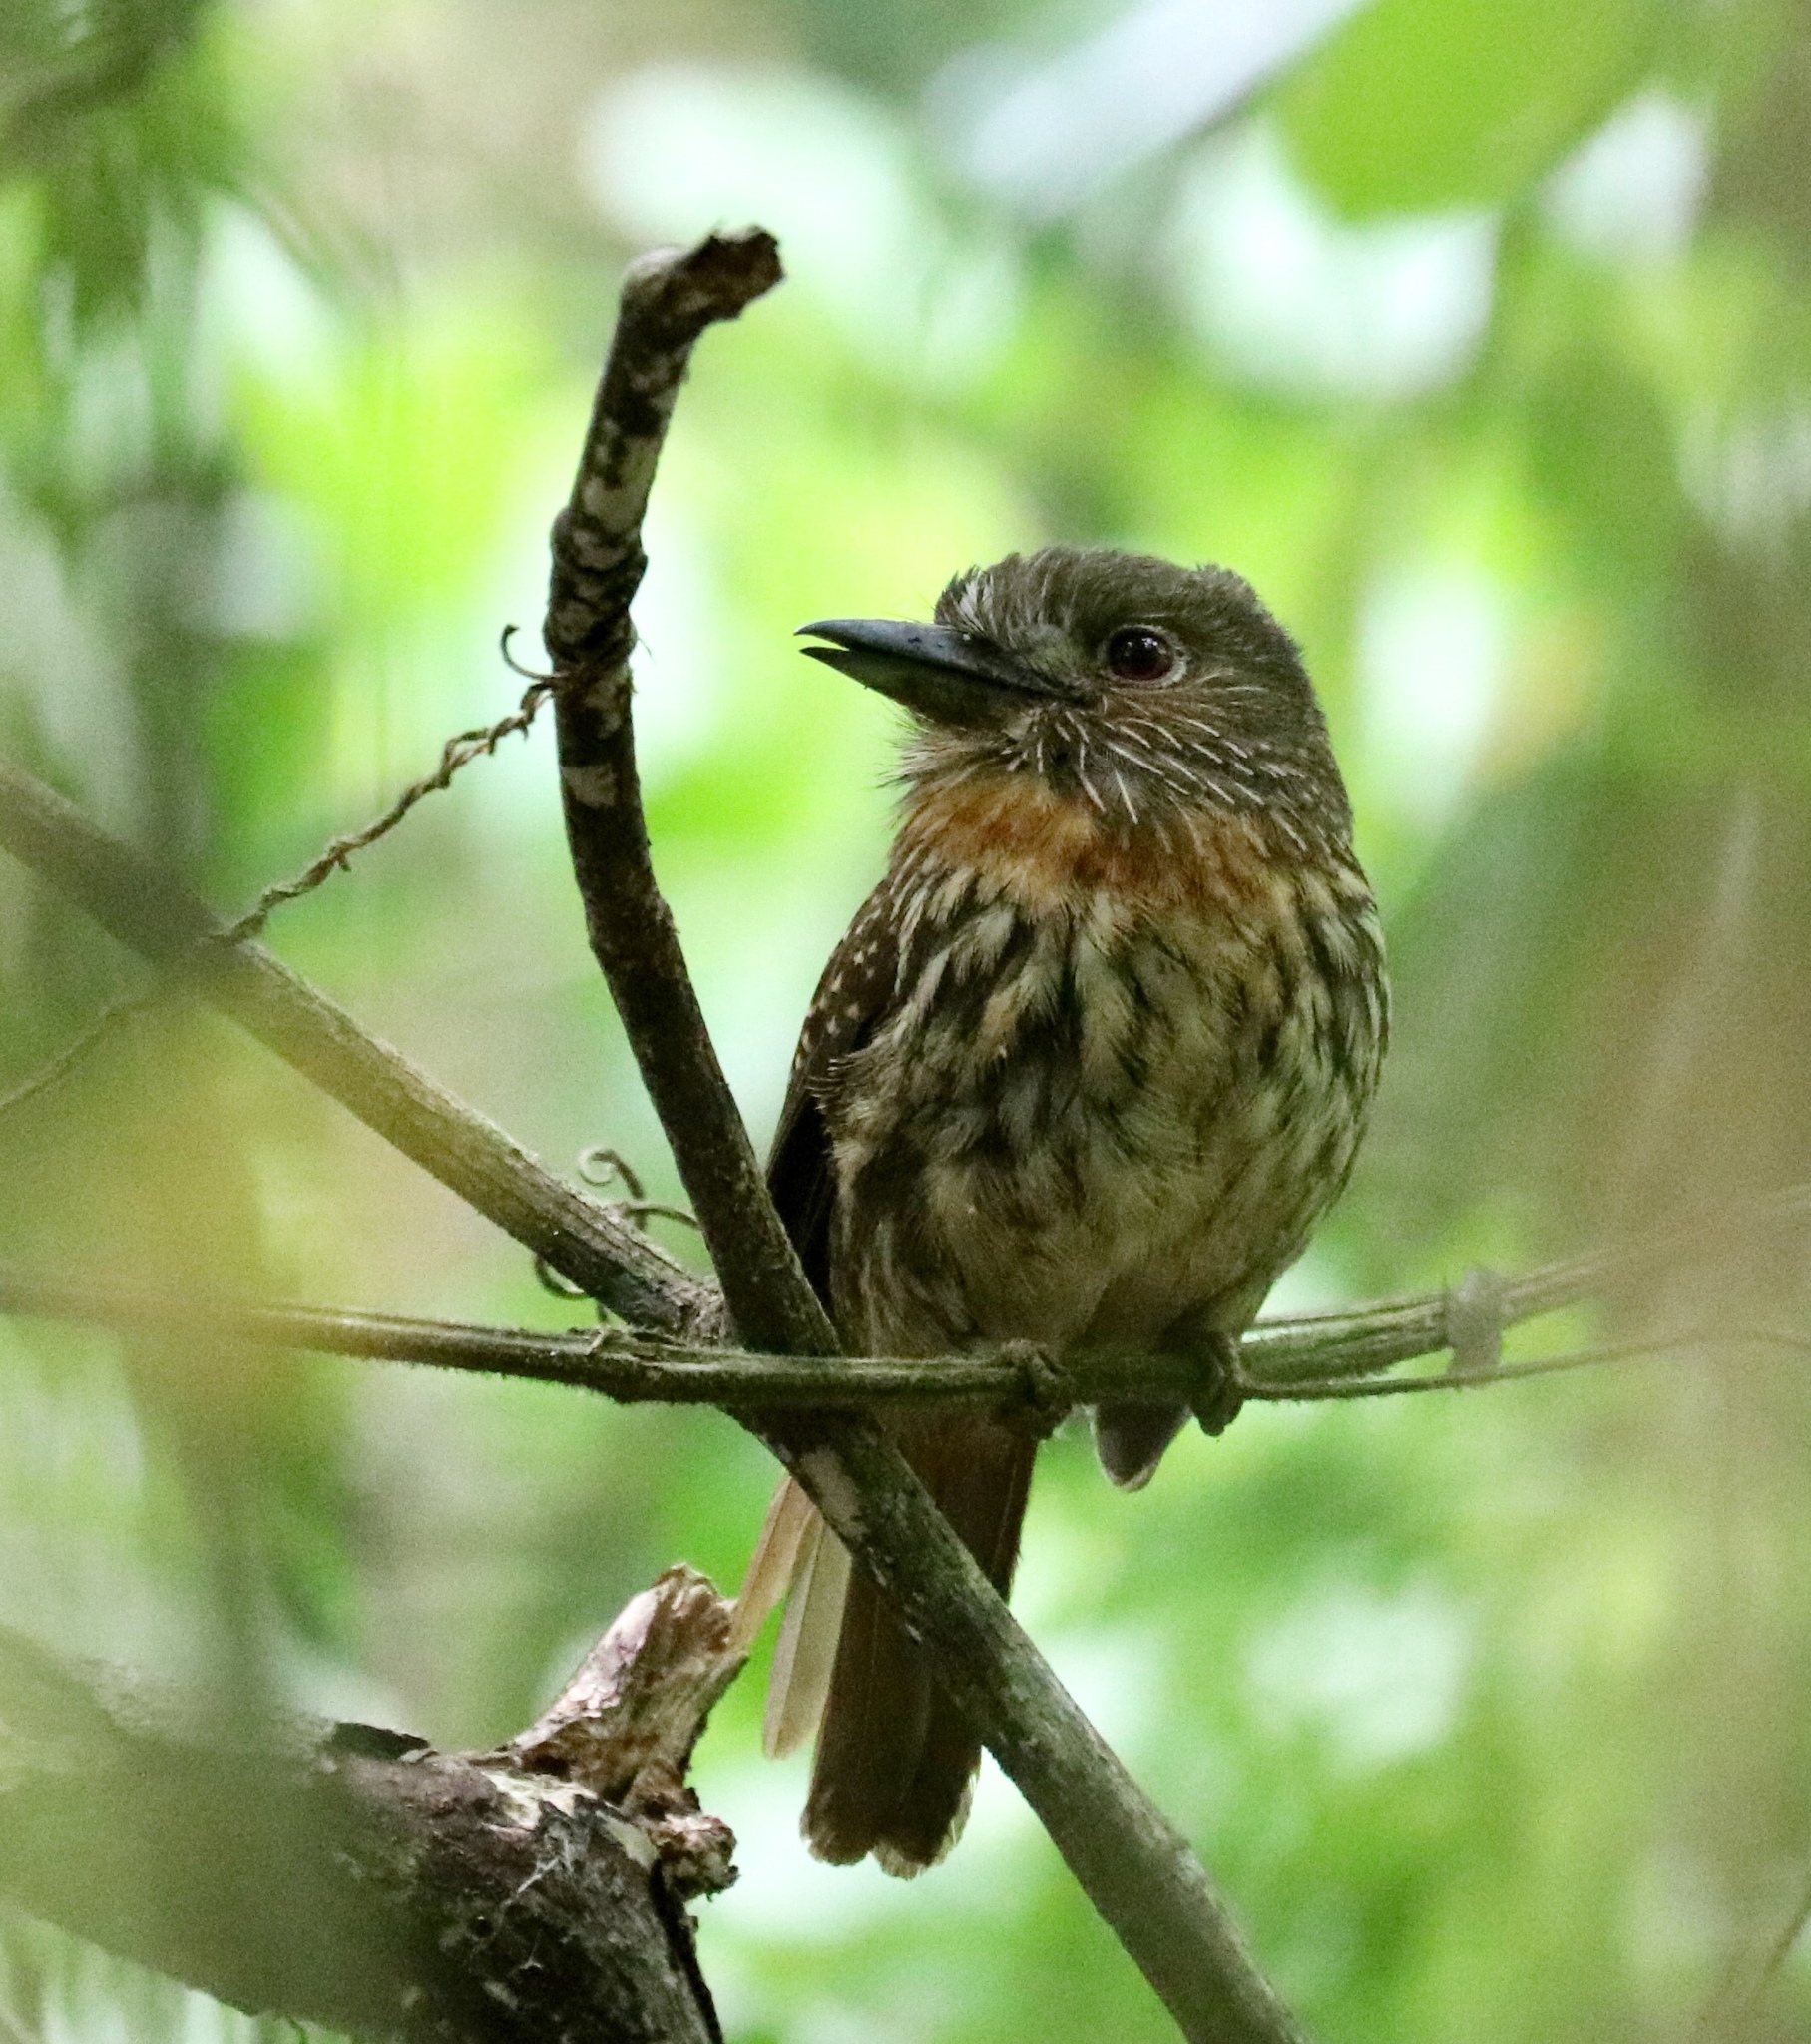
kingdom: Animalia
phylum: Chordata
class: Aves
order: Piciformes
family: Bucconidae
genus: Malacoptila
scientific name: Malacoptila panamensis
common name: White-whiskered puffbird
